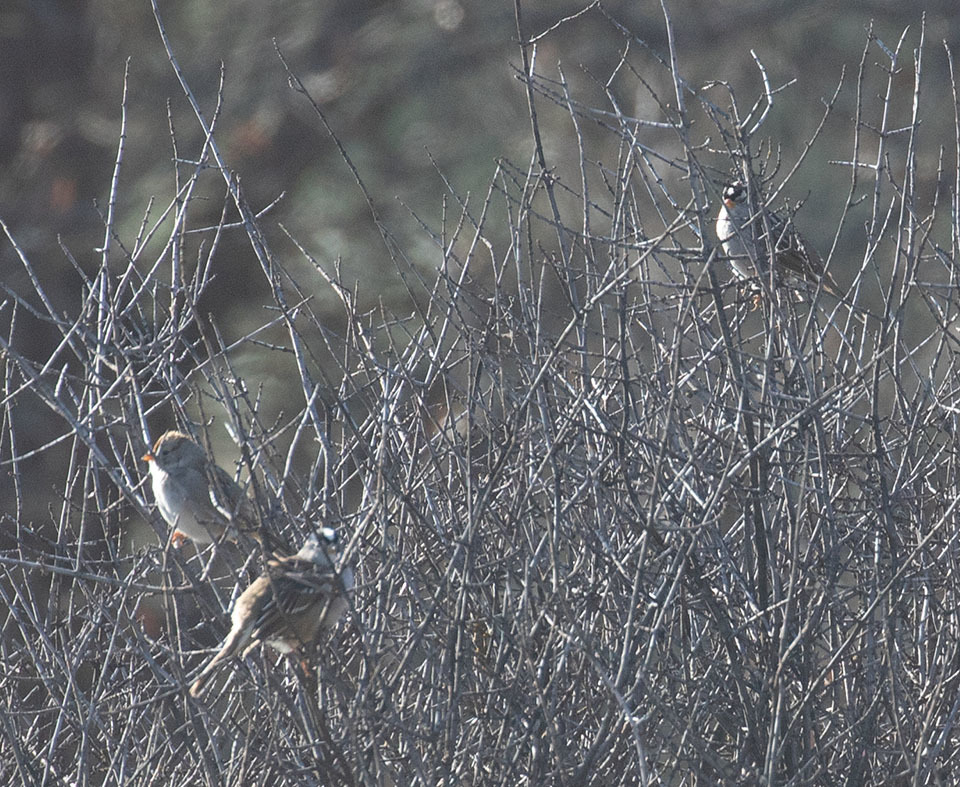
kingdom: Animalia
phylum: Chordata
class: Aves
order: Passeriformes
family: Passerellidae
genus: Zonotrichia
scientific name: Zonotrichia leucophrys
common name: White-crowned sparrow
